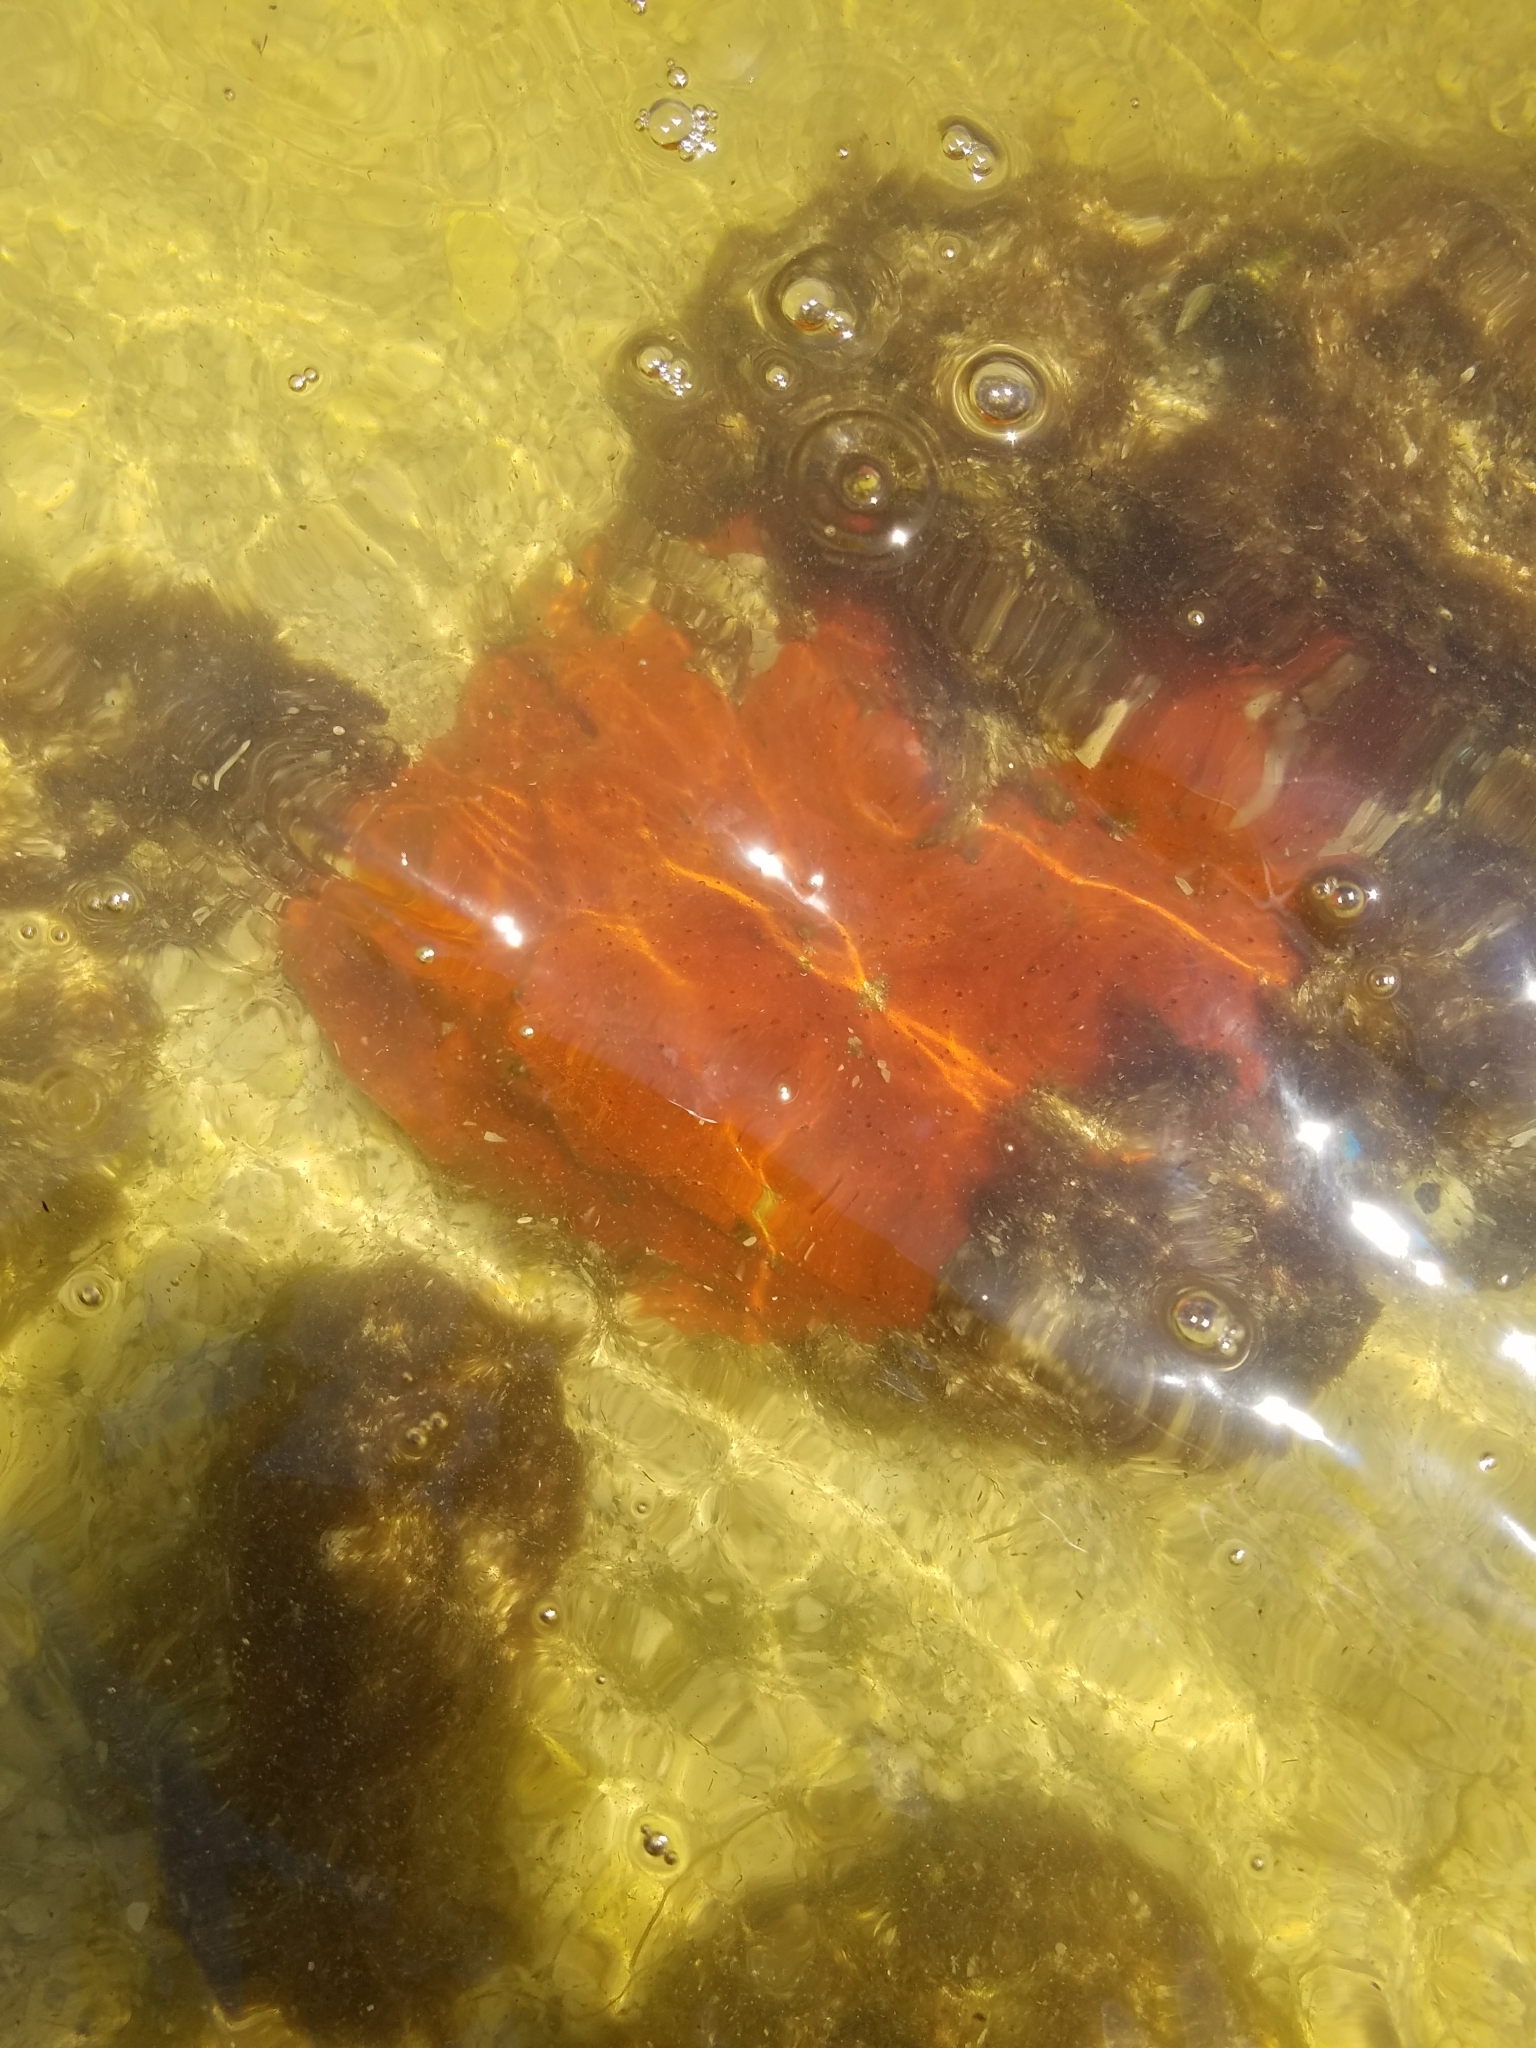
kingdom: Animalia
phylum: Porifera
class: Demospongiae
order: Clionaida
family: Clionaidae
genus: Pione
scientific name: Pione lampa
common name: Red boring sponge
